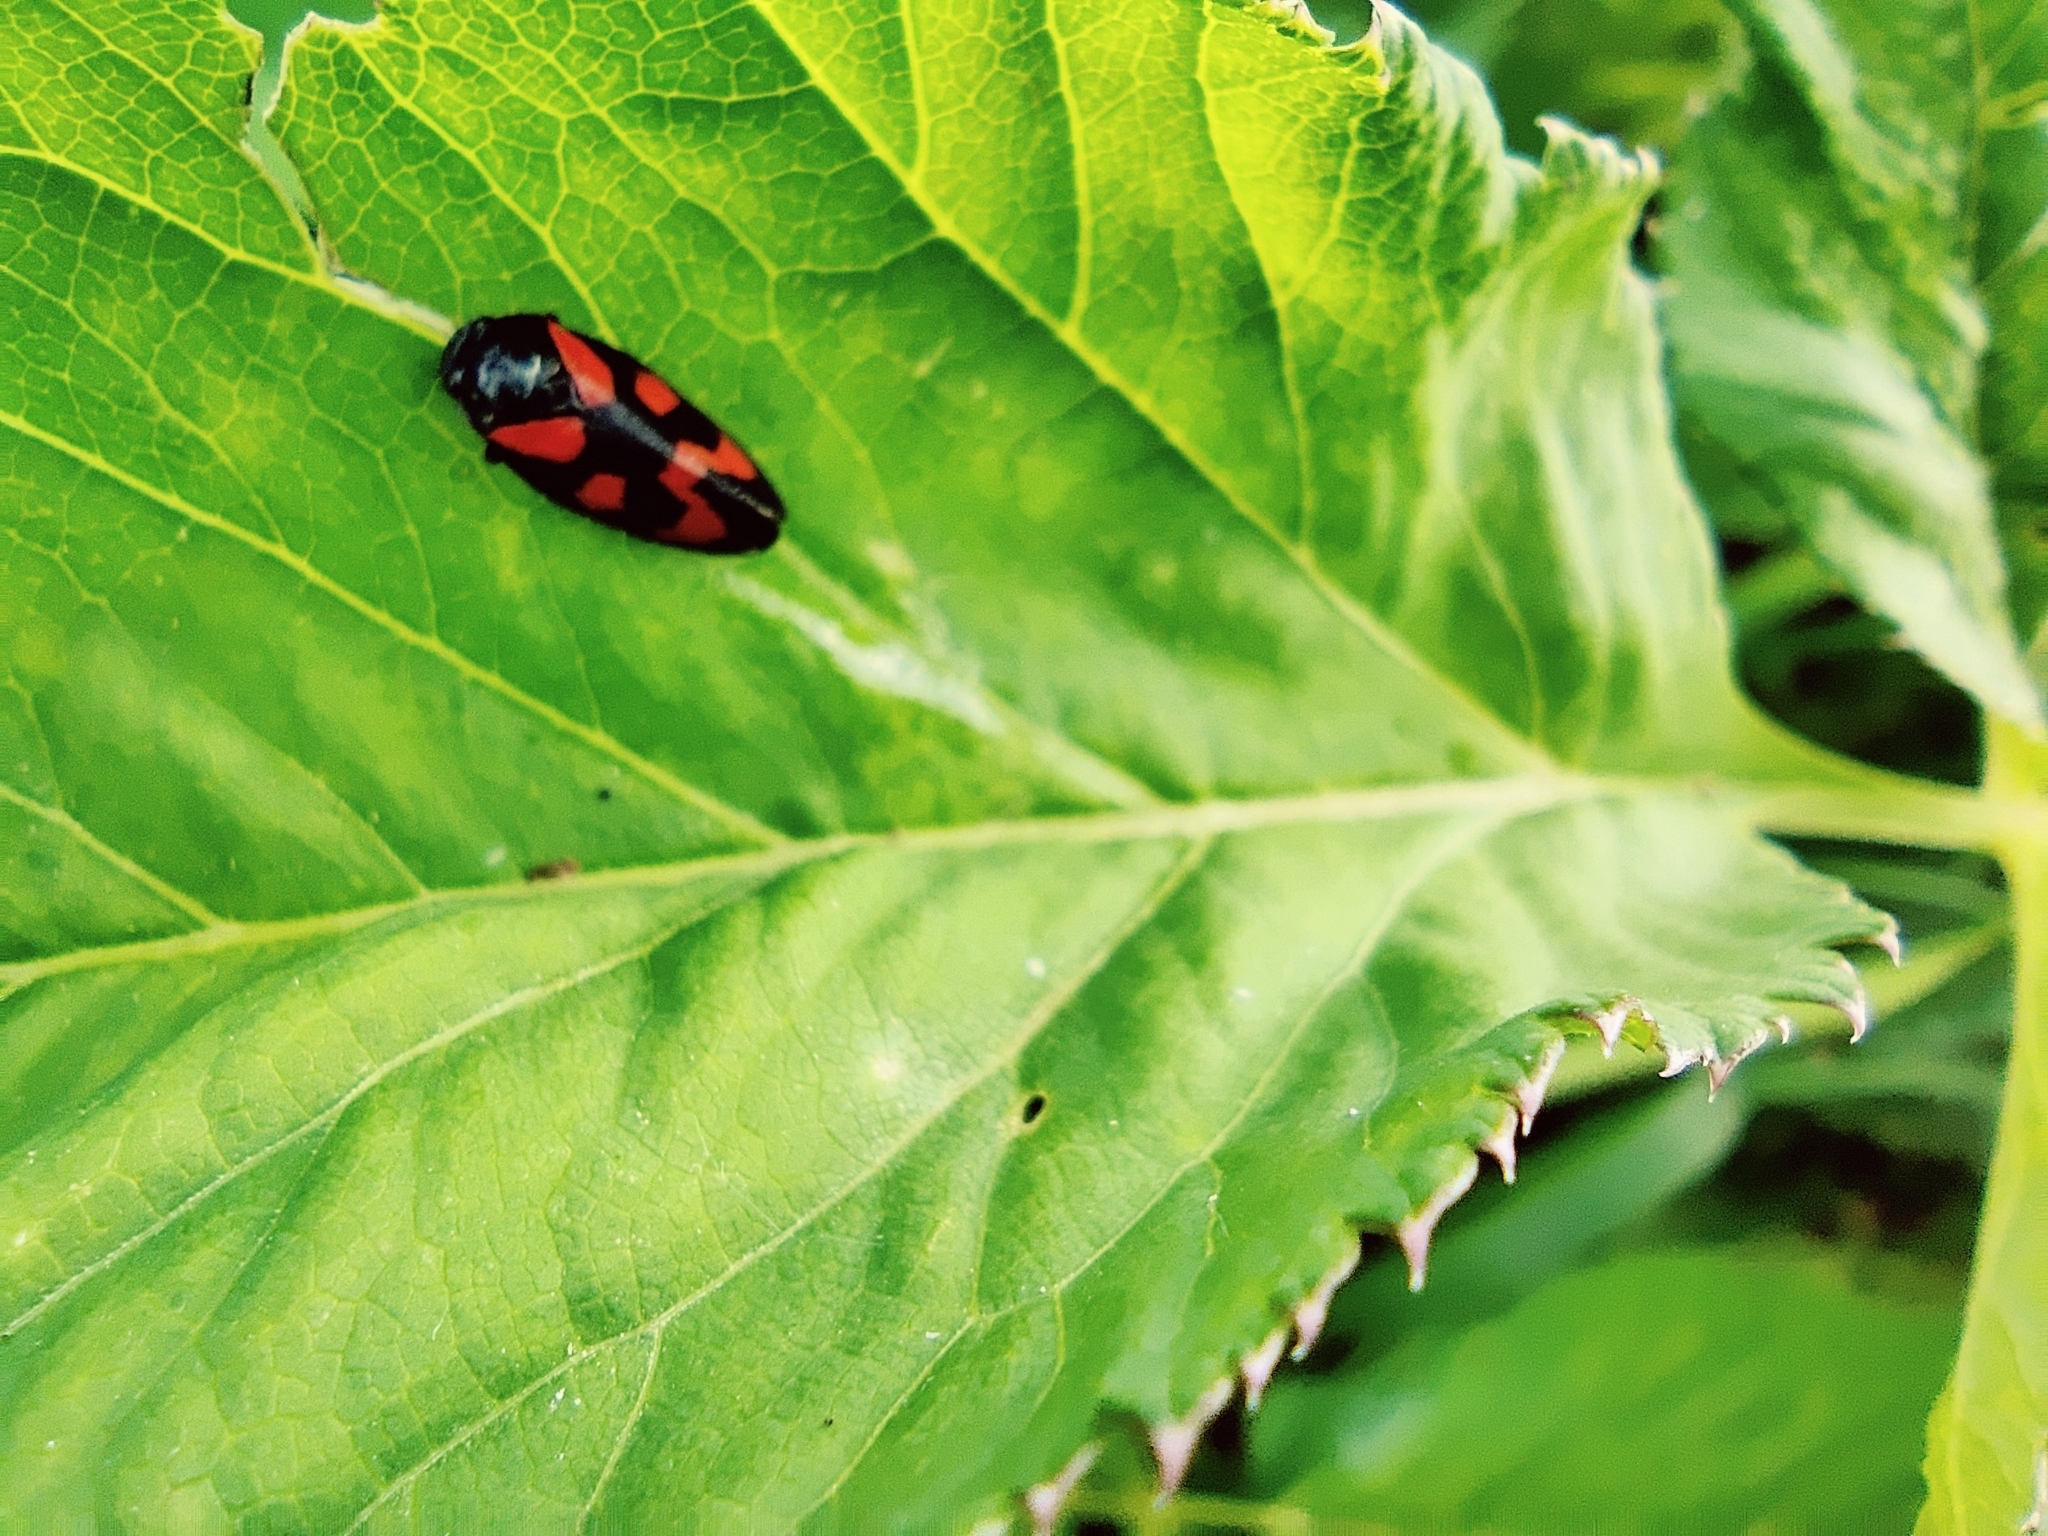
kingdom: Animalia
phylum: Arthropoda
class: Insecta
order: Hemiptera
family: Cercopidae
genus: Cercopis
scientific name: Cercopis vulnerata
